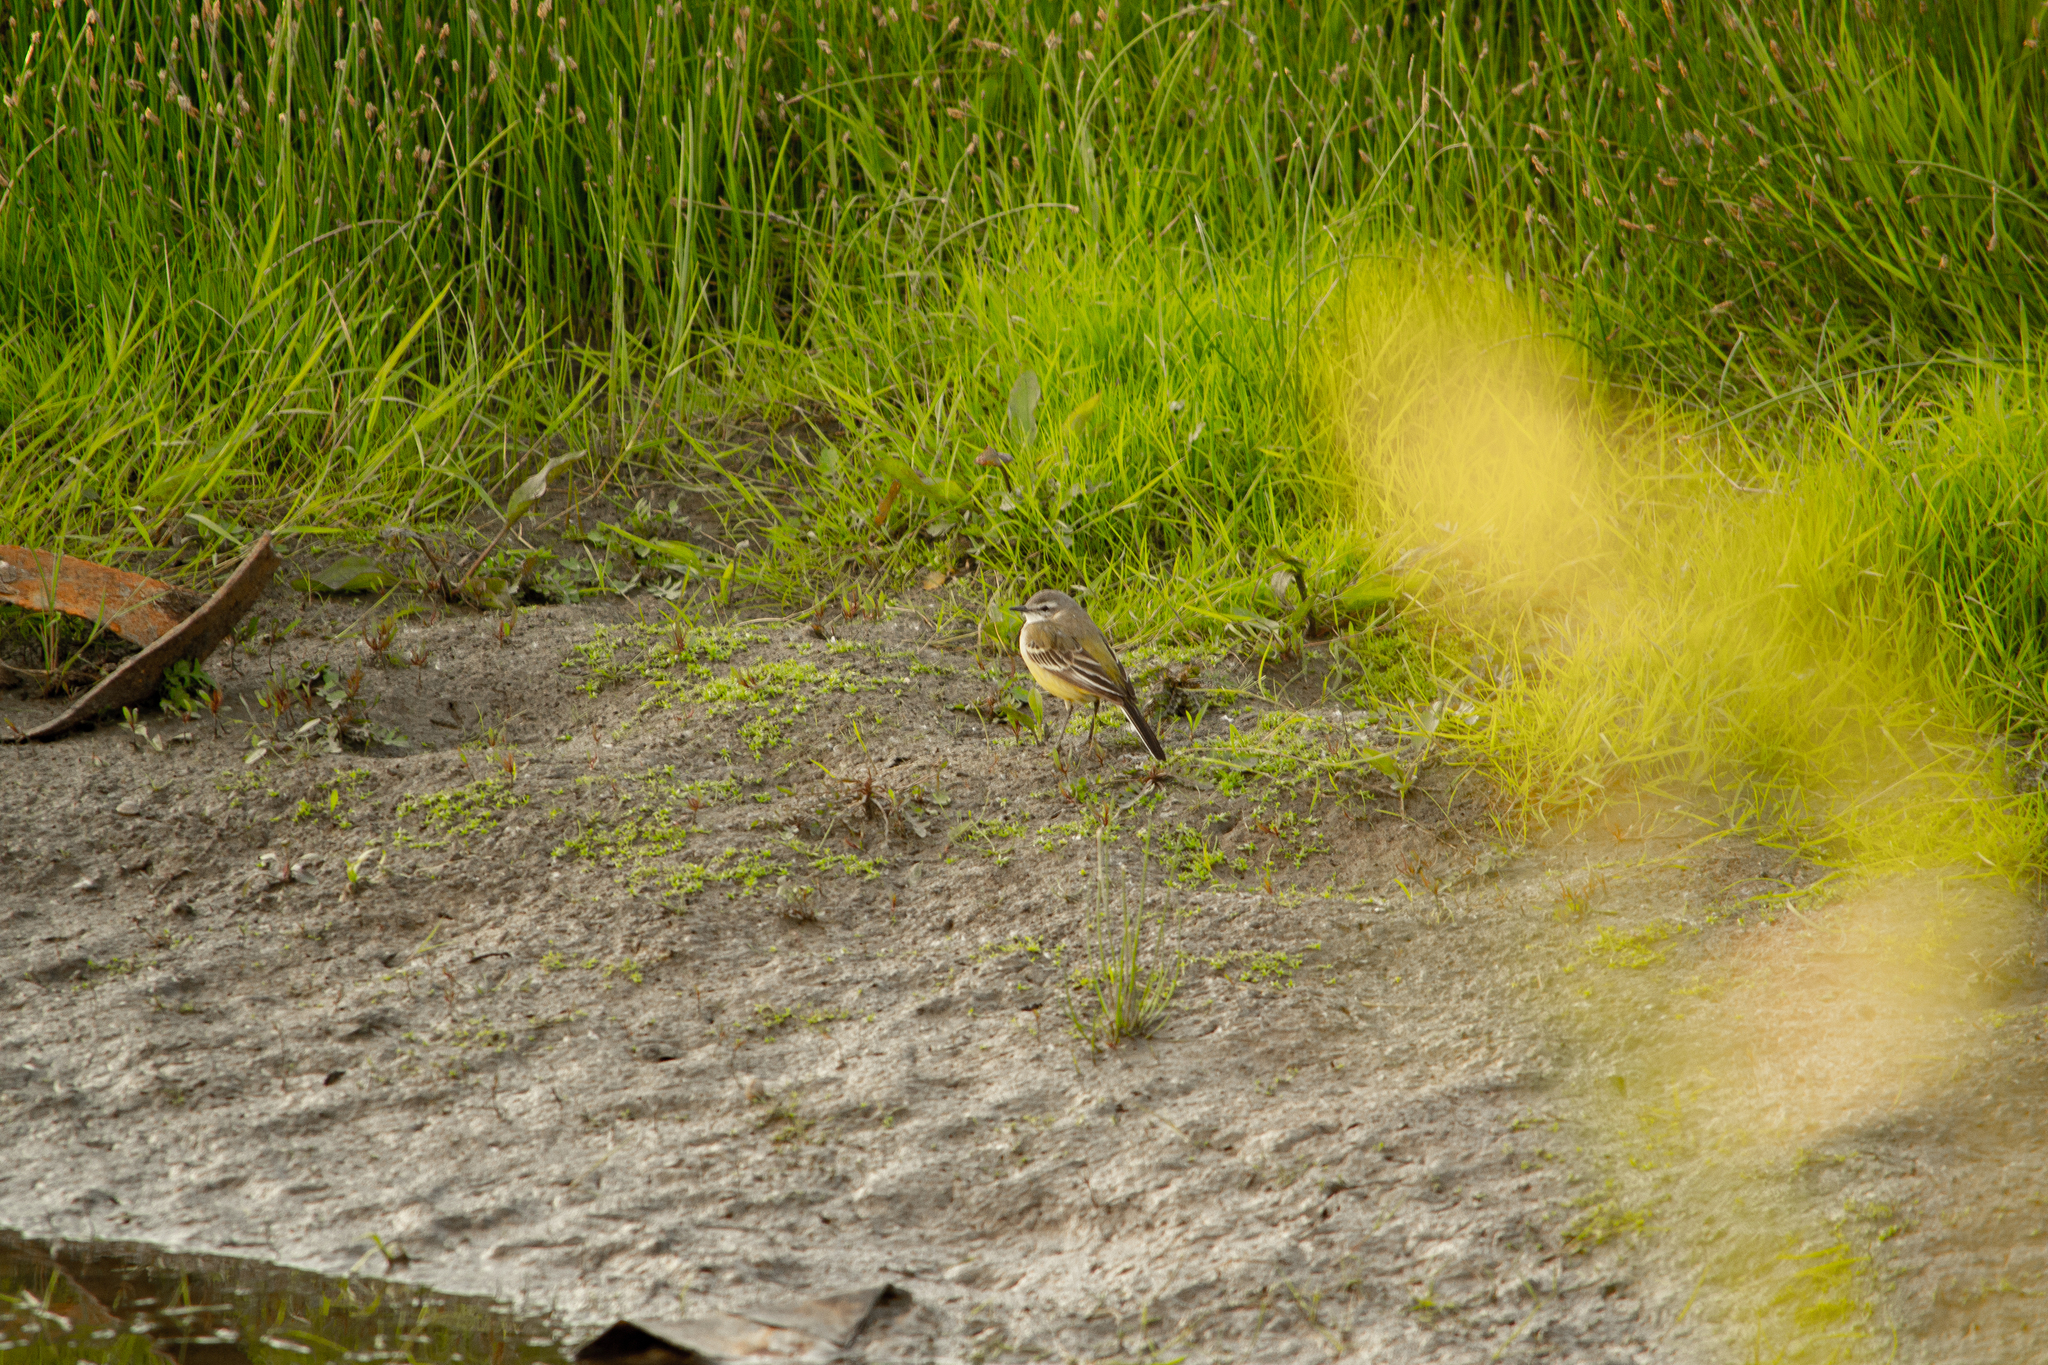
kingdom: Animalia
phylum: Chordata
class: Aves
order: Passeriformes
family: Motacillidae
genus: Motacilla
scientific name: Motacilla flava
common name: Western yellow wagtail
